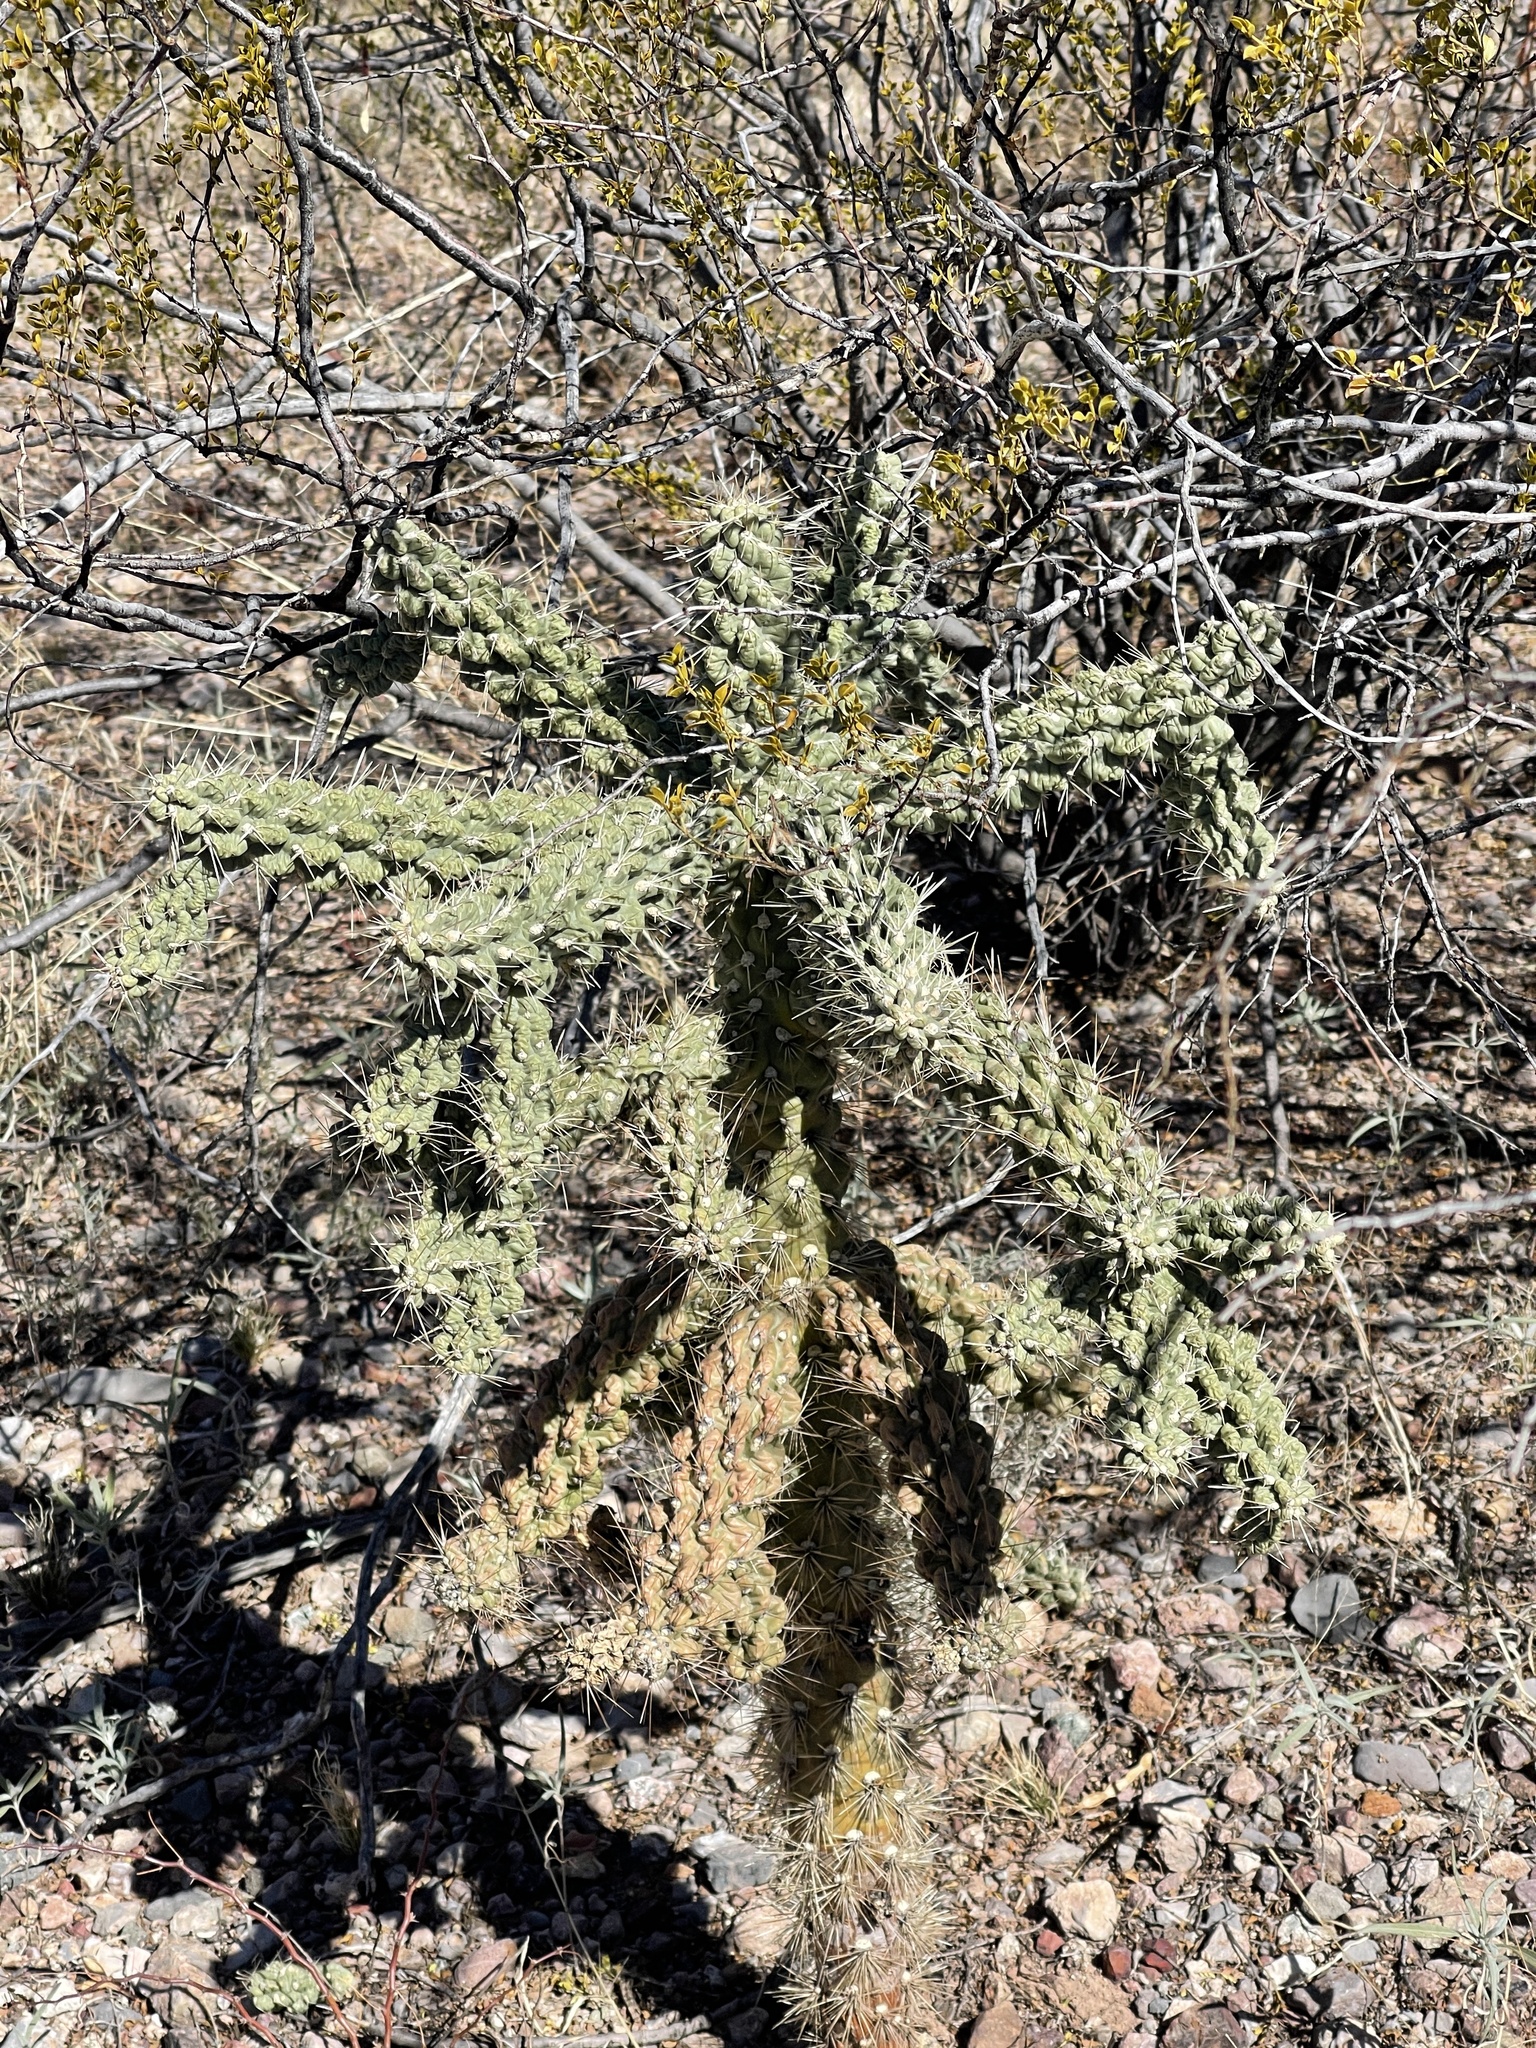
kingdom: Plantae
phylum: Tracheophyta
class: Magnoliopsida
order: Caryophyllales
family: Cactaceae
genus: Cylindropuntia
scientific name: Cylindropuntia fulgida
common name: Jumping cholla
